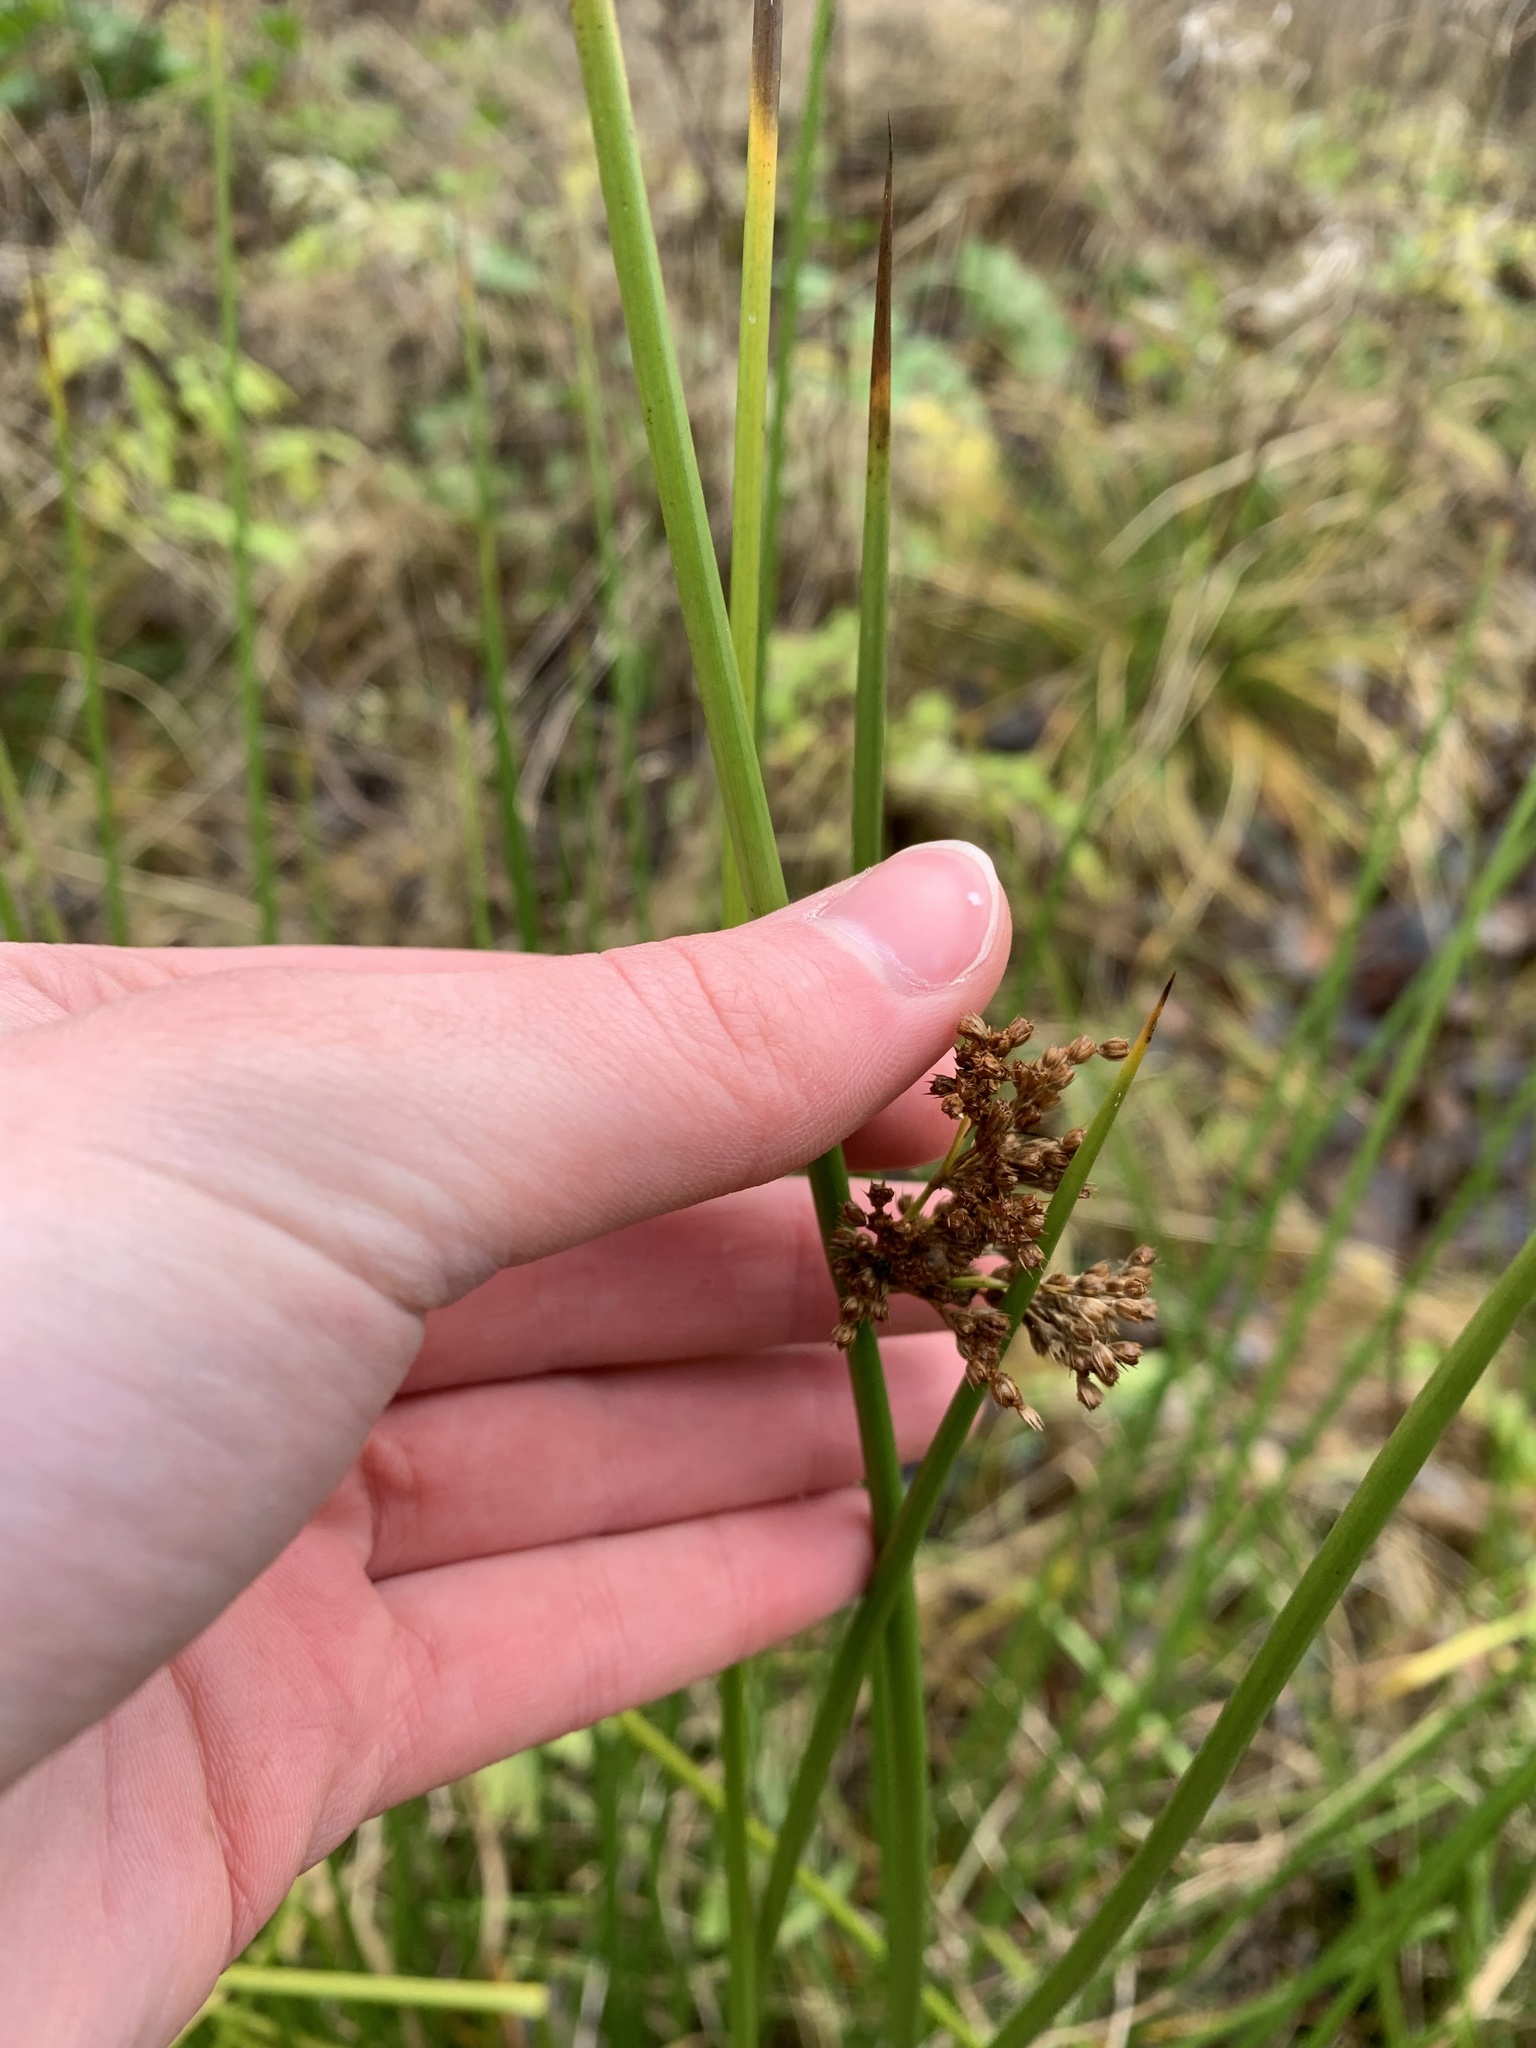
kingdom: Plantae
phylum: Tracheophyta
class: Liliopsida
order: Poales
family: Juncaceae
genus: Juncus
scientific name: Juncus effusus
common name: Soft rush
